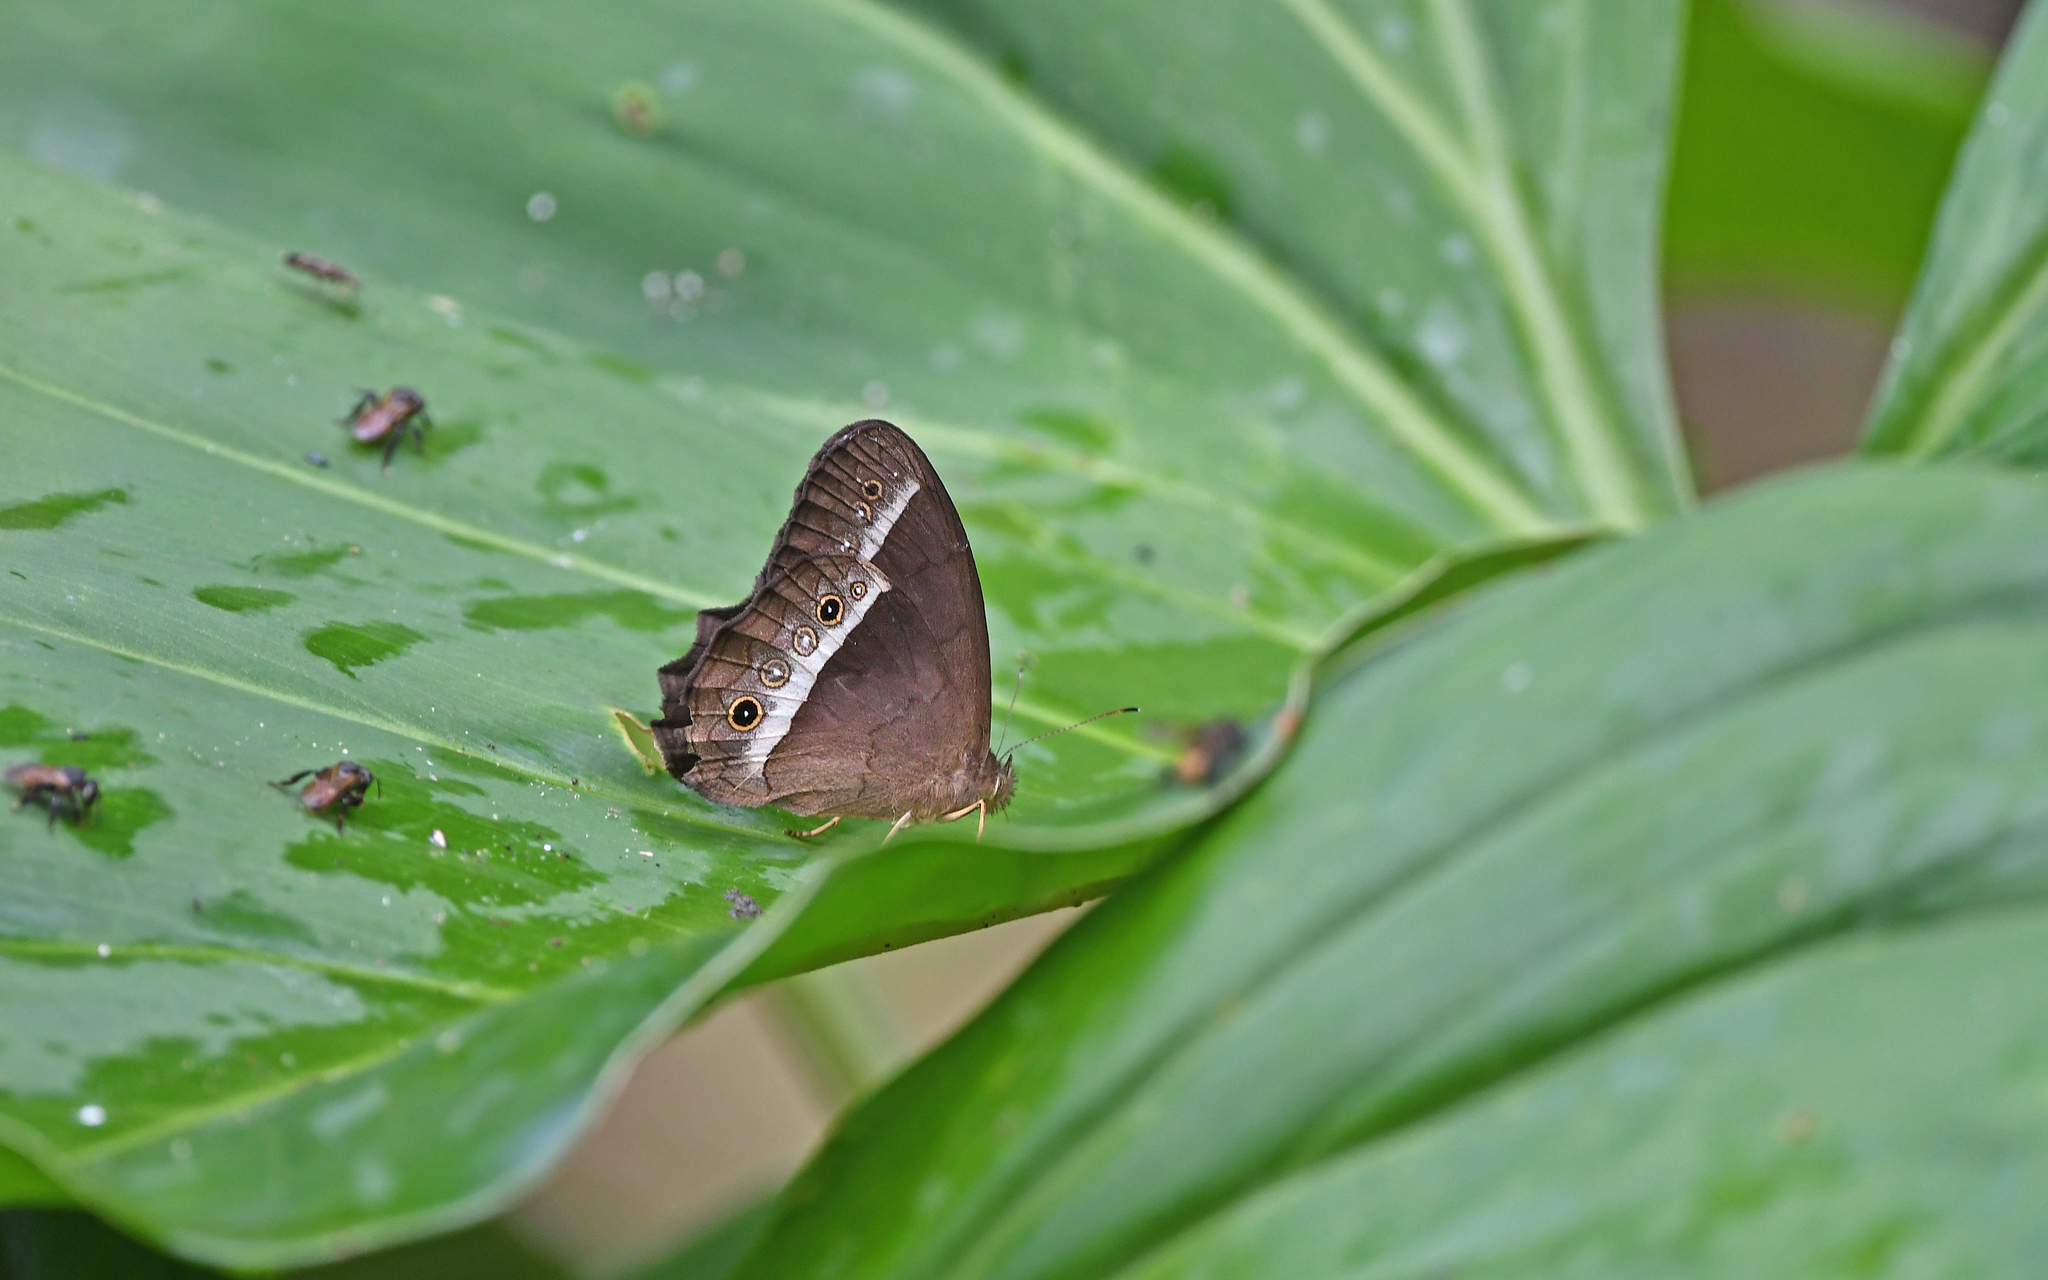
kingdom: Animalia
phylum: Arthropoda
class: Insecta
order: Lepidoptera
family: Nymphalidae
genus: Harjesia
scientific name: Harjesia blanda
